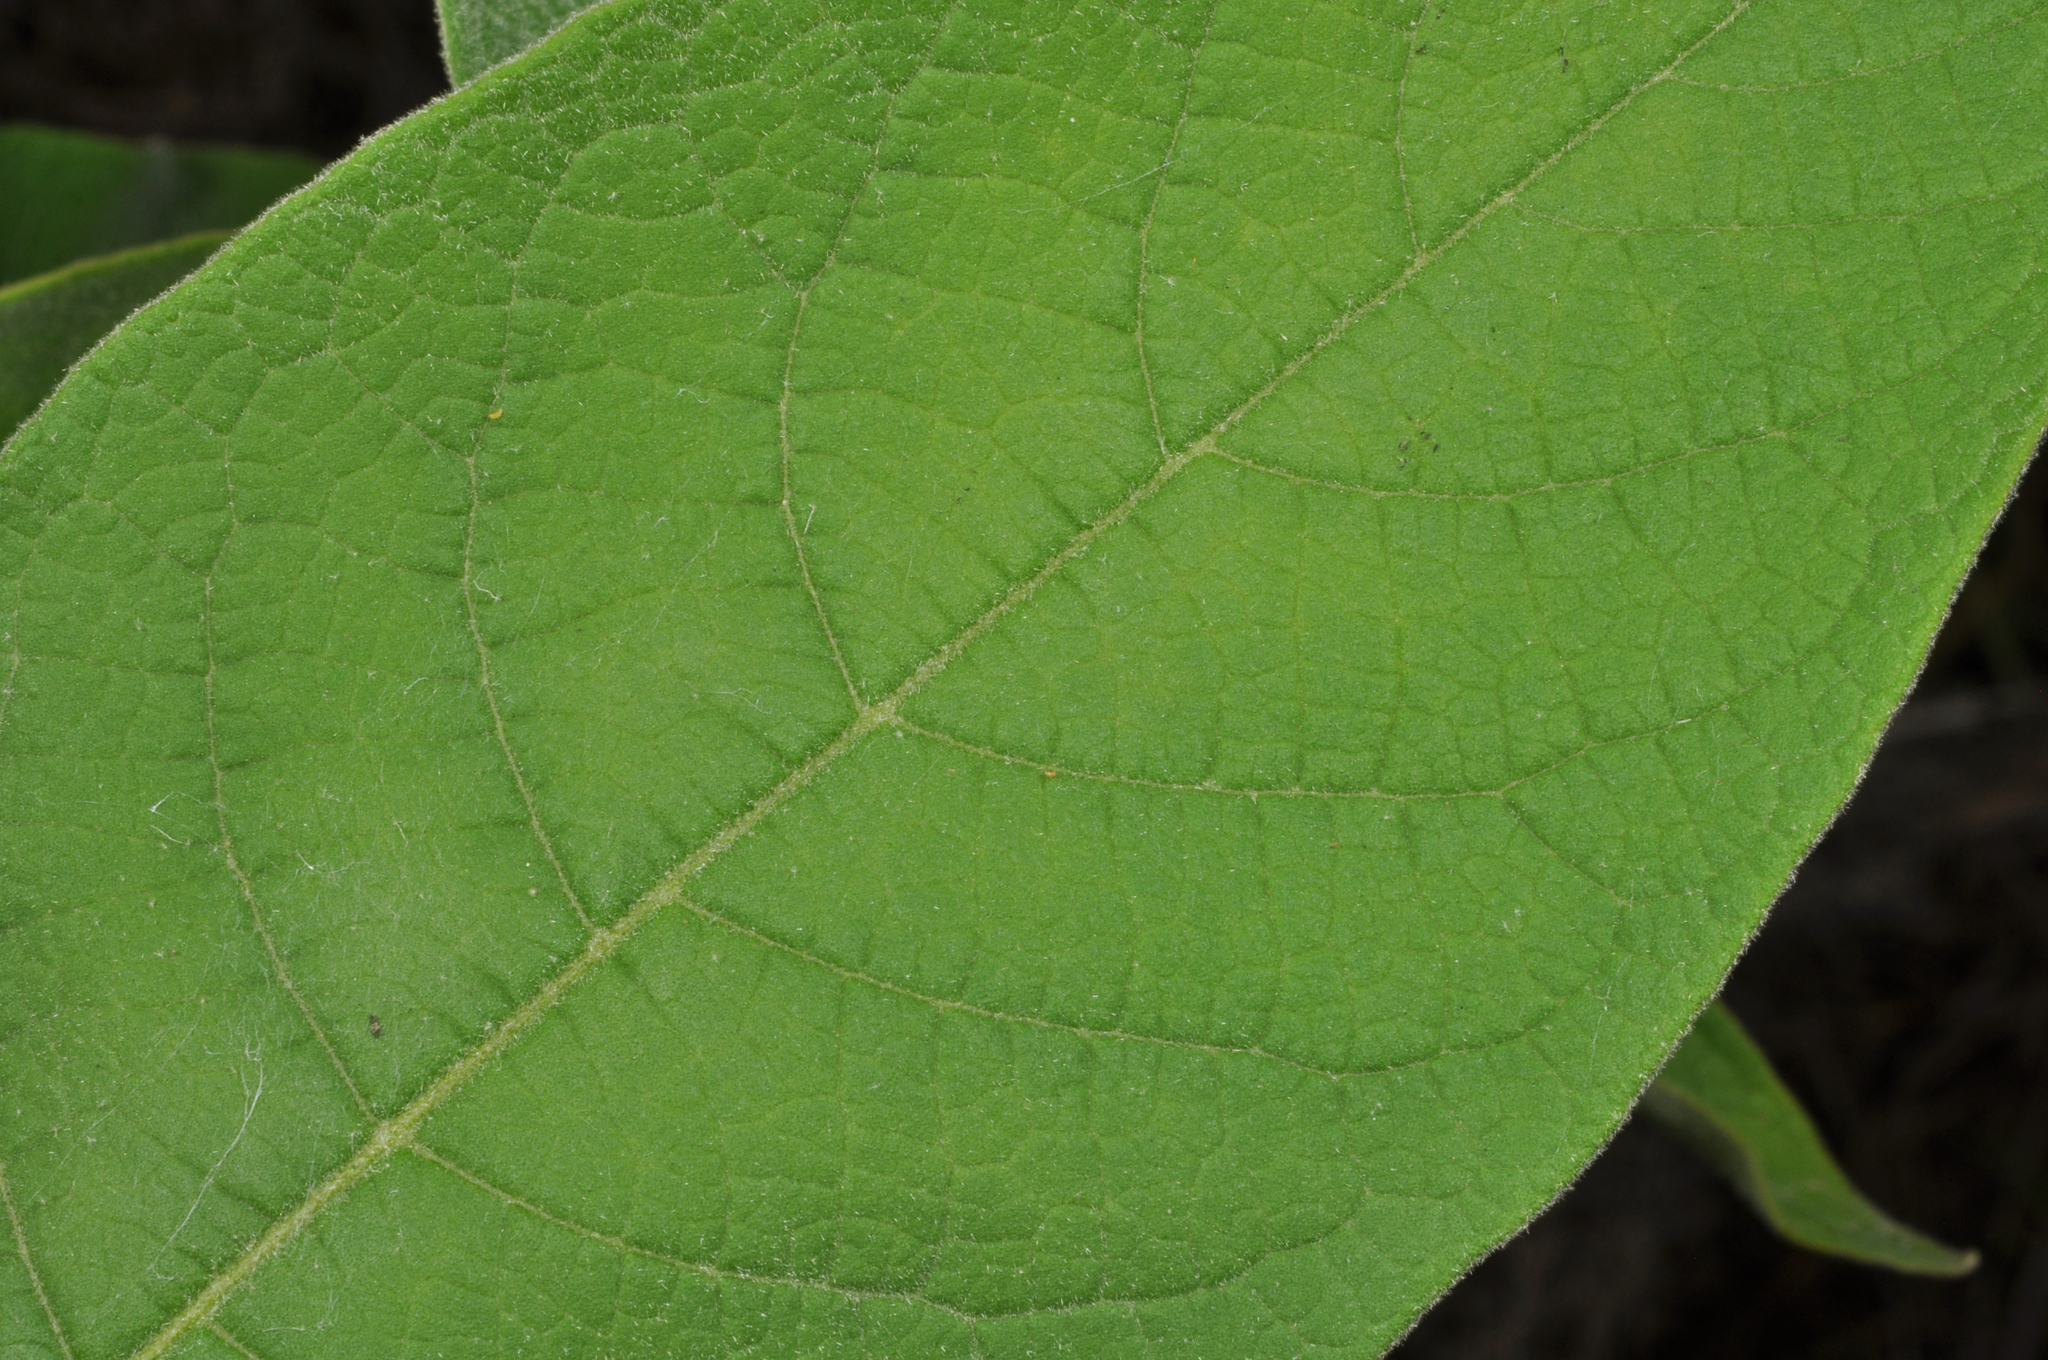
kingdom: Plantae
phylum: Tracheophyta
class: Magnoliopsida
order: Solanales
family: Solanaceae
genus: Solanum
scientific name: Solanum mauritianum
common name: Earleaf nightshade
